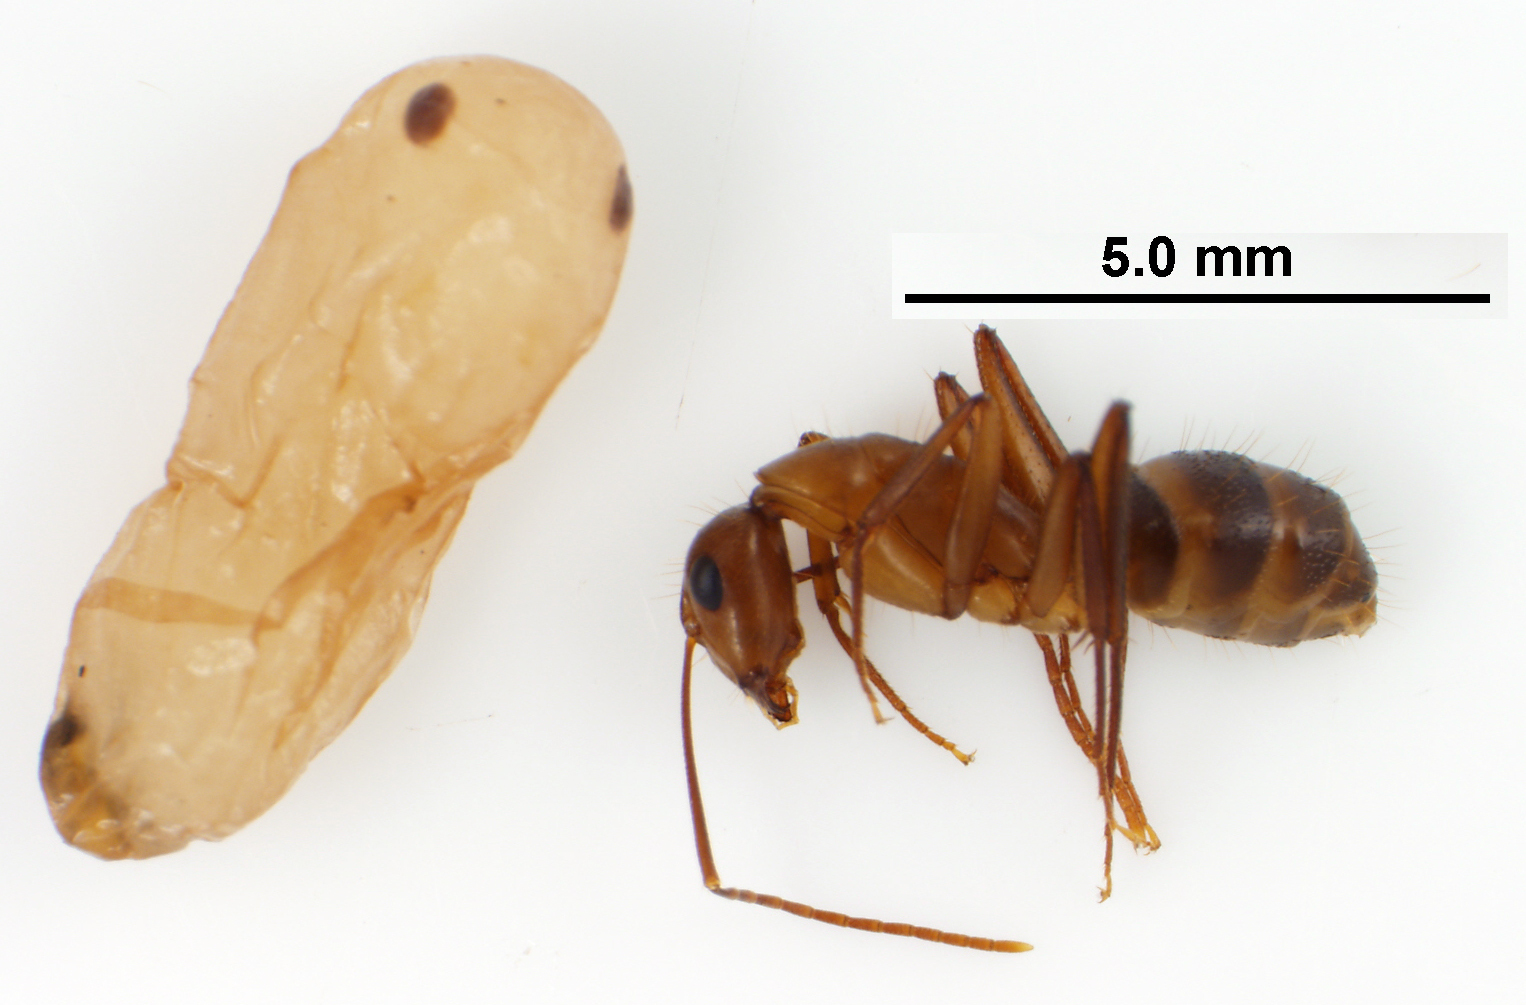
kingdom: Animalia
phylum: Arthropoda
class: Insecta
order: Hymenoptera
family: Formicidae
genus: Camponotus
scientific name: Camponotus inaequalis
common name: Ant
